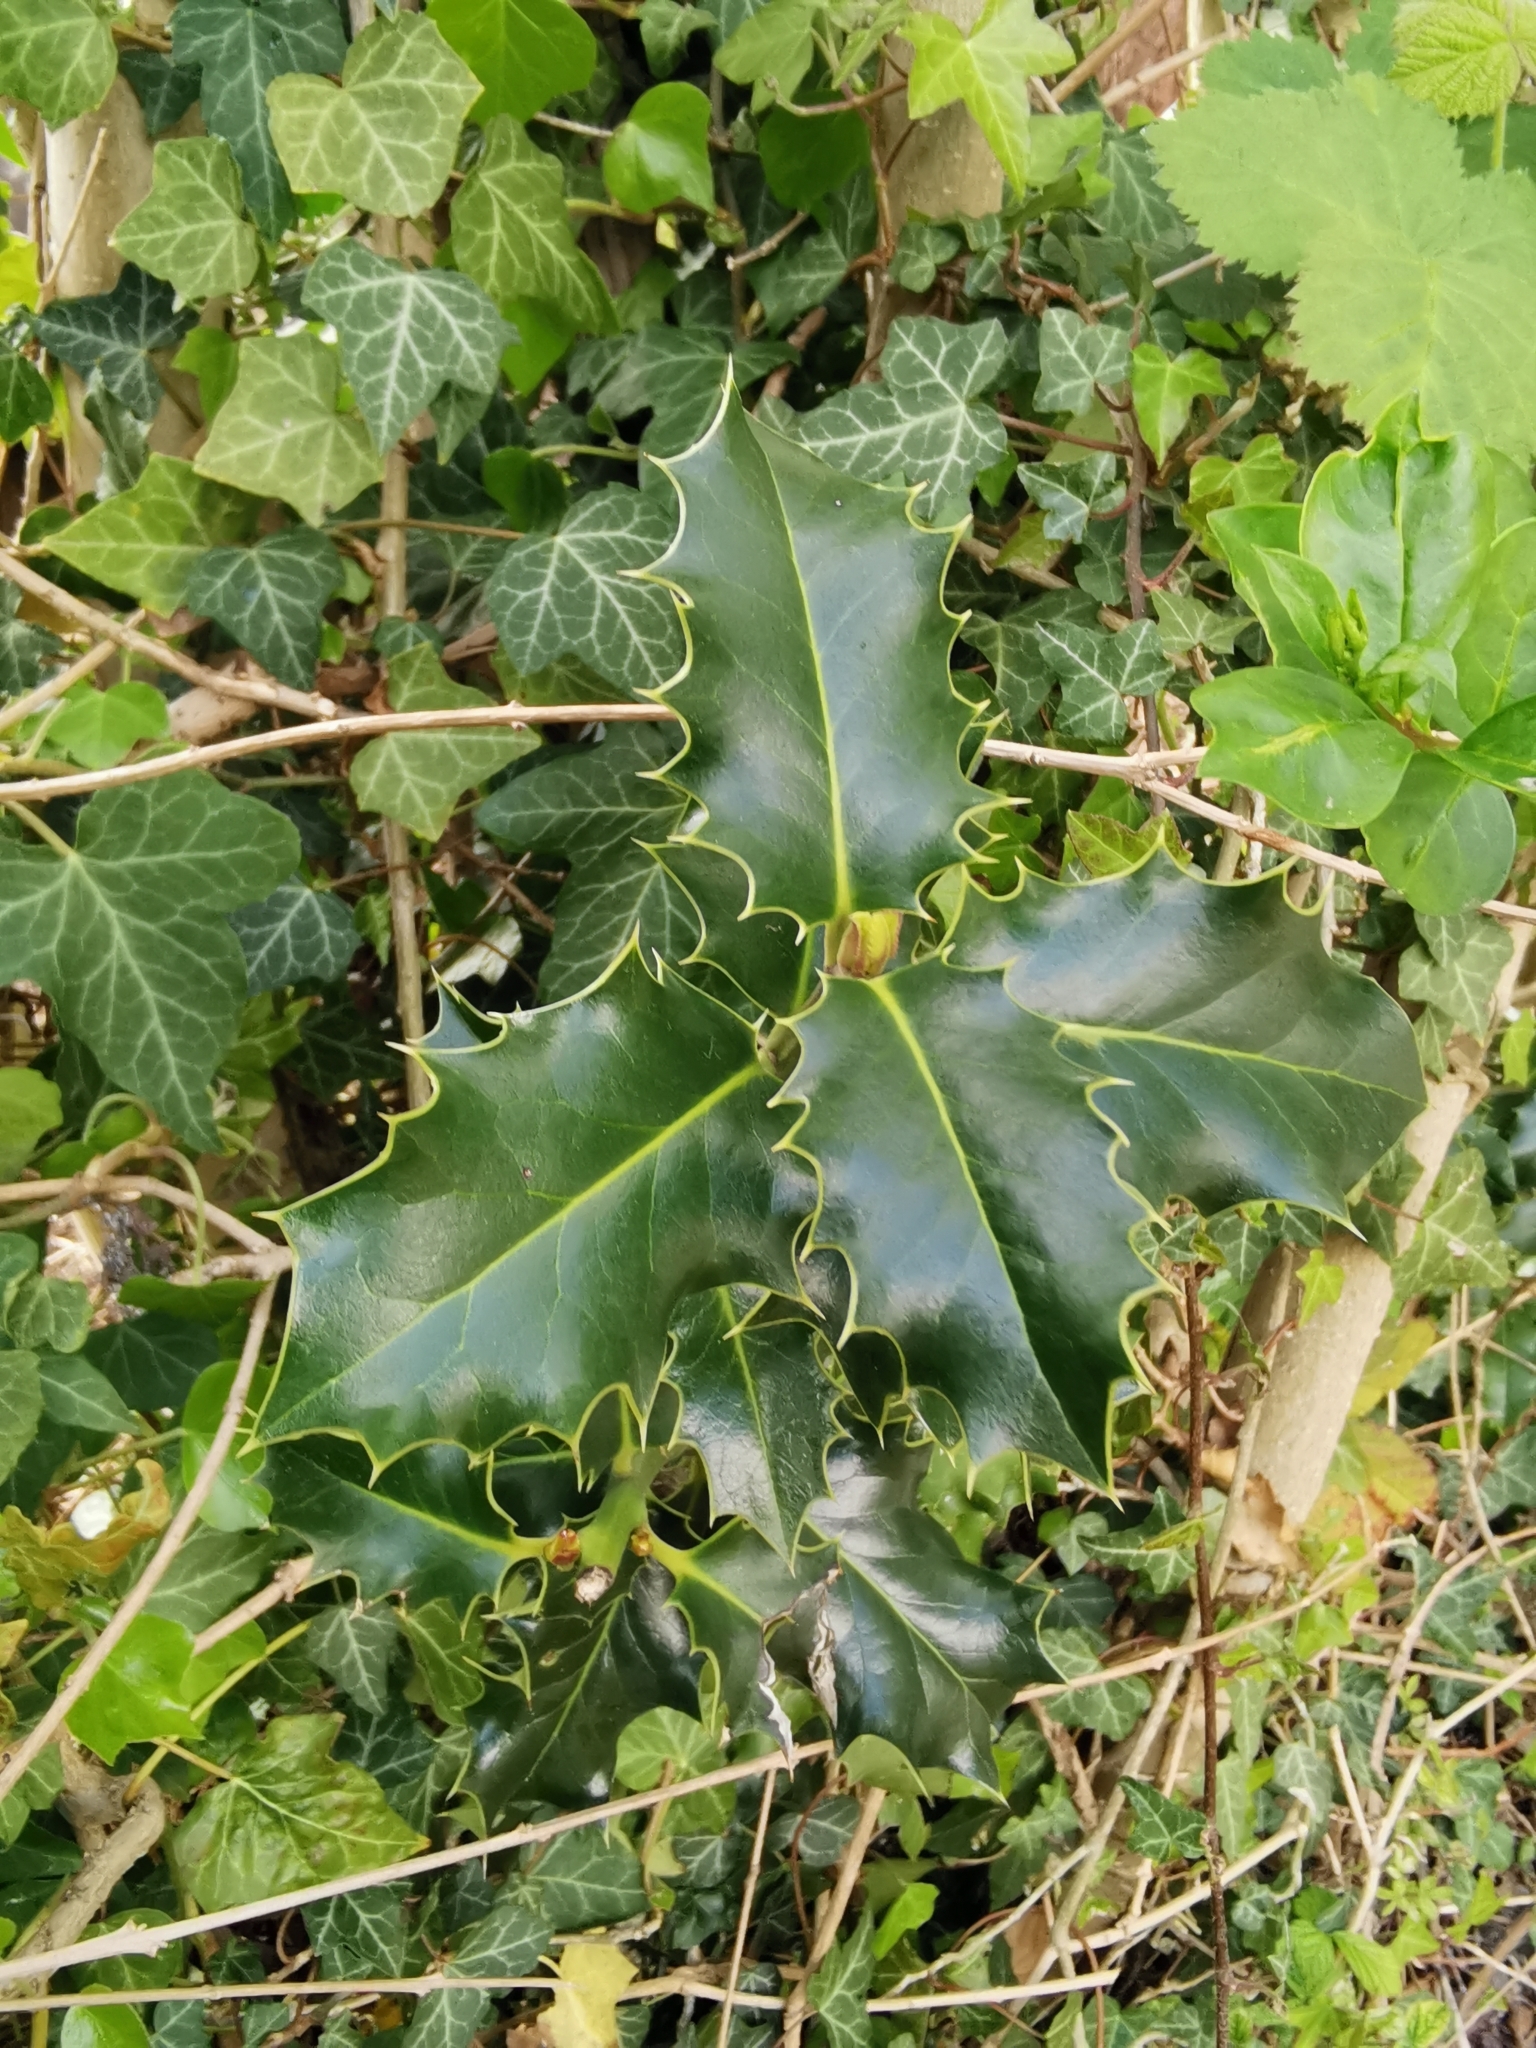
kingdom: Plantae
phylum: Tracheophyta
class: Magnoliopsida
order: Aquifoliales
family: Aquifoliaceae
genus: Ilex
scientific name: Ilex aquifolium
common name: English holly
